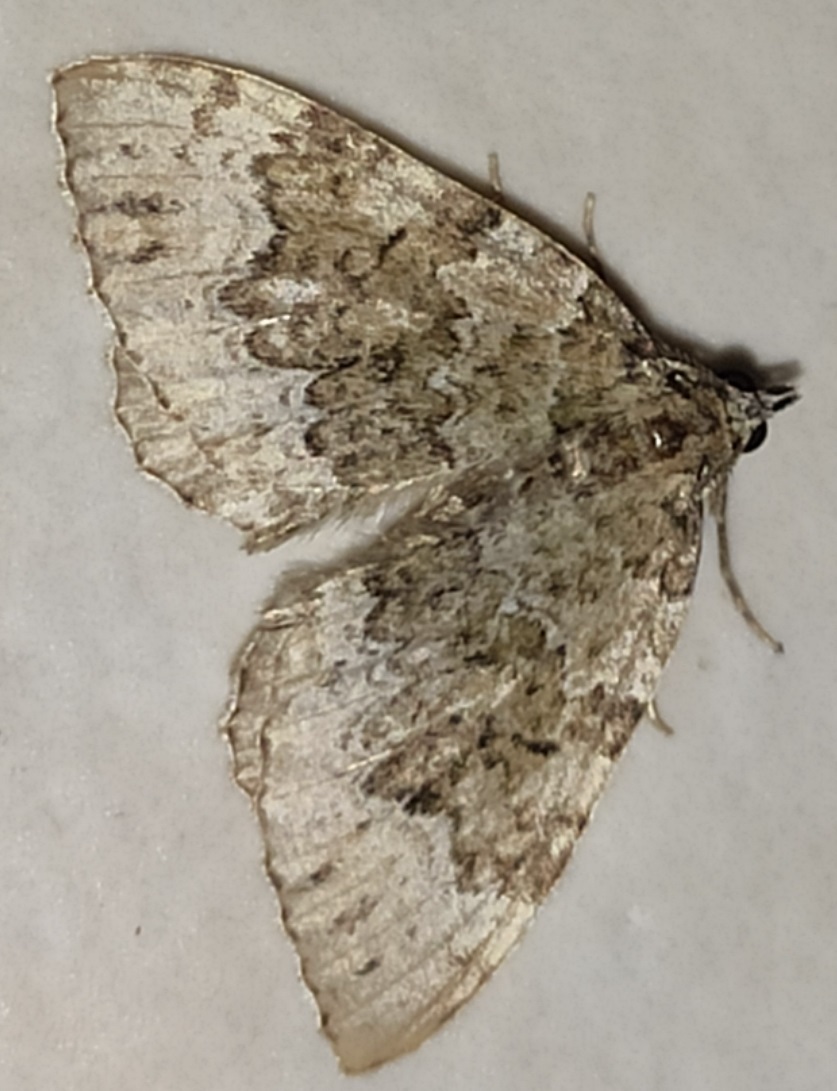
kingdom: Animalia
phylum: Arthropoda
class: Insecta
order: Lepidoptera
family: Geometridae
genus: Colostygia
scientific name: Colostygia olivata
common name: Beech-green carpet
